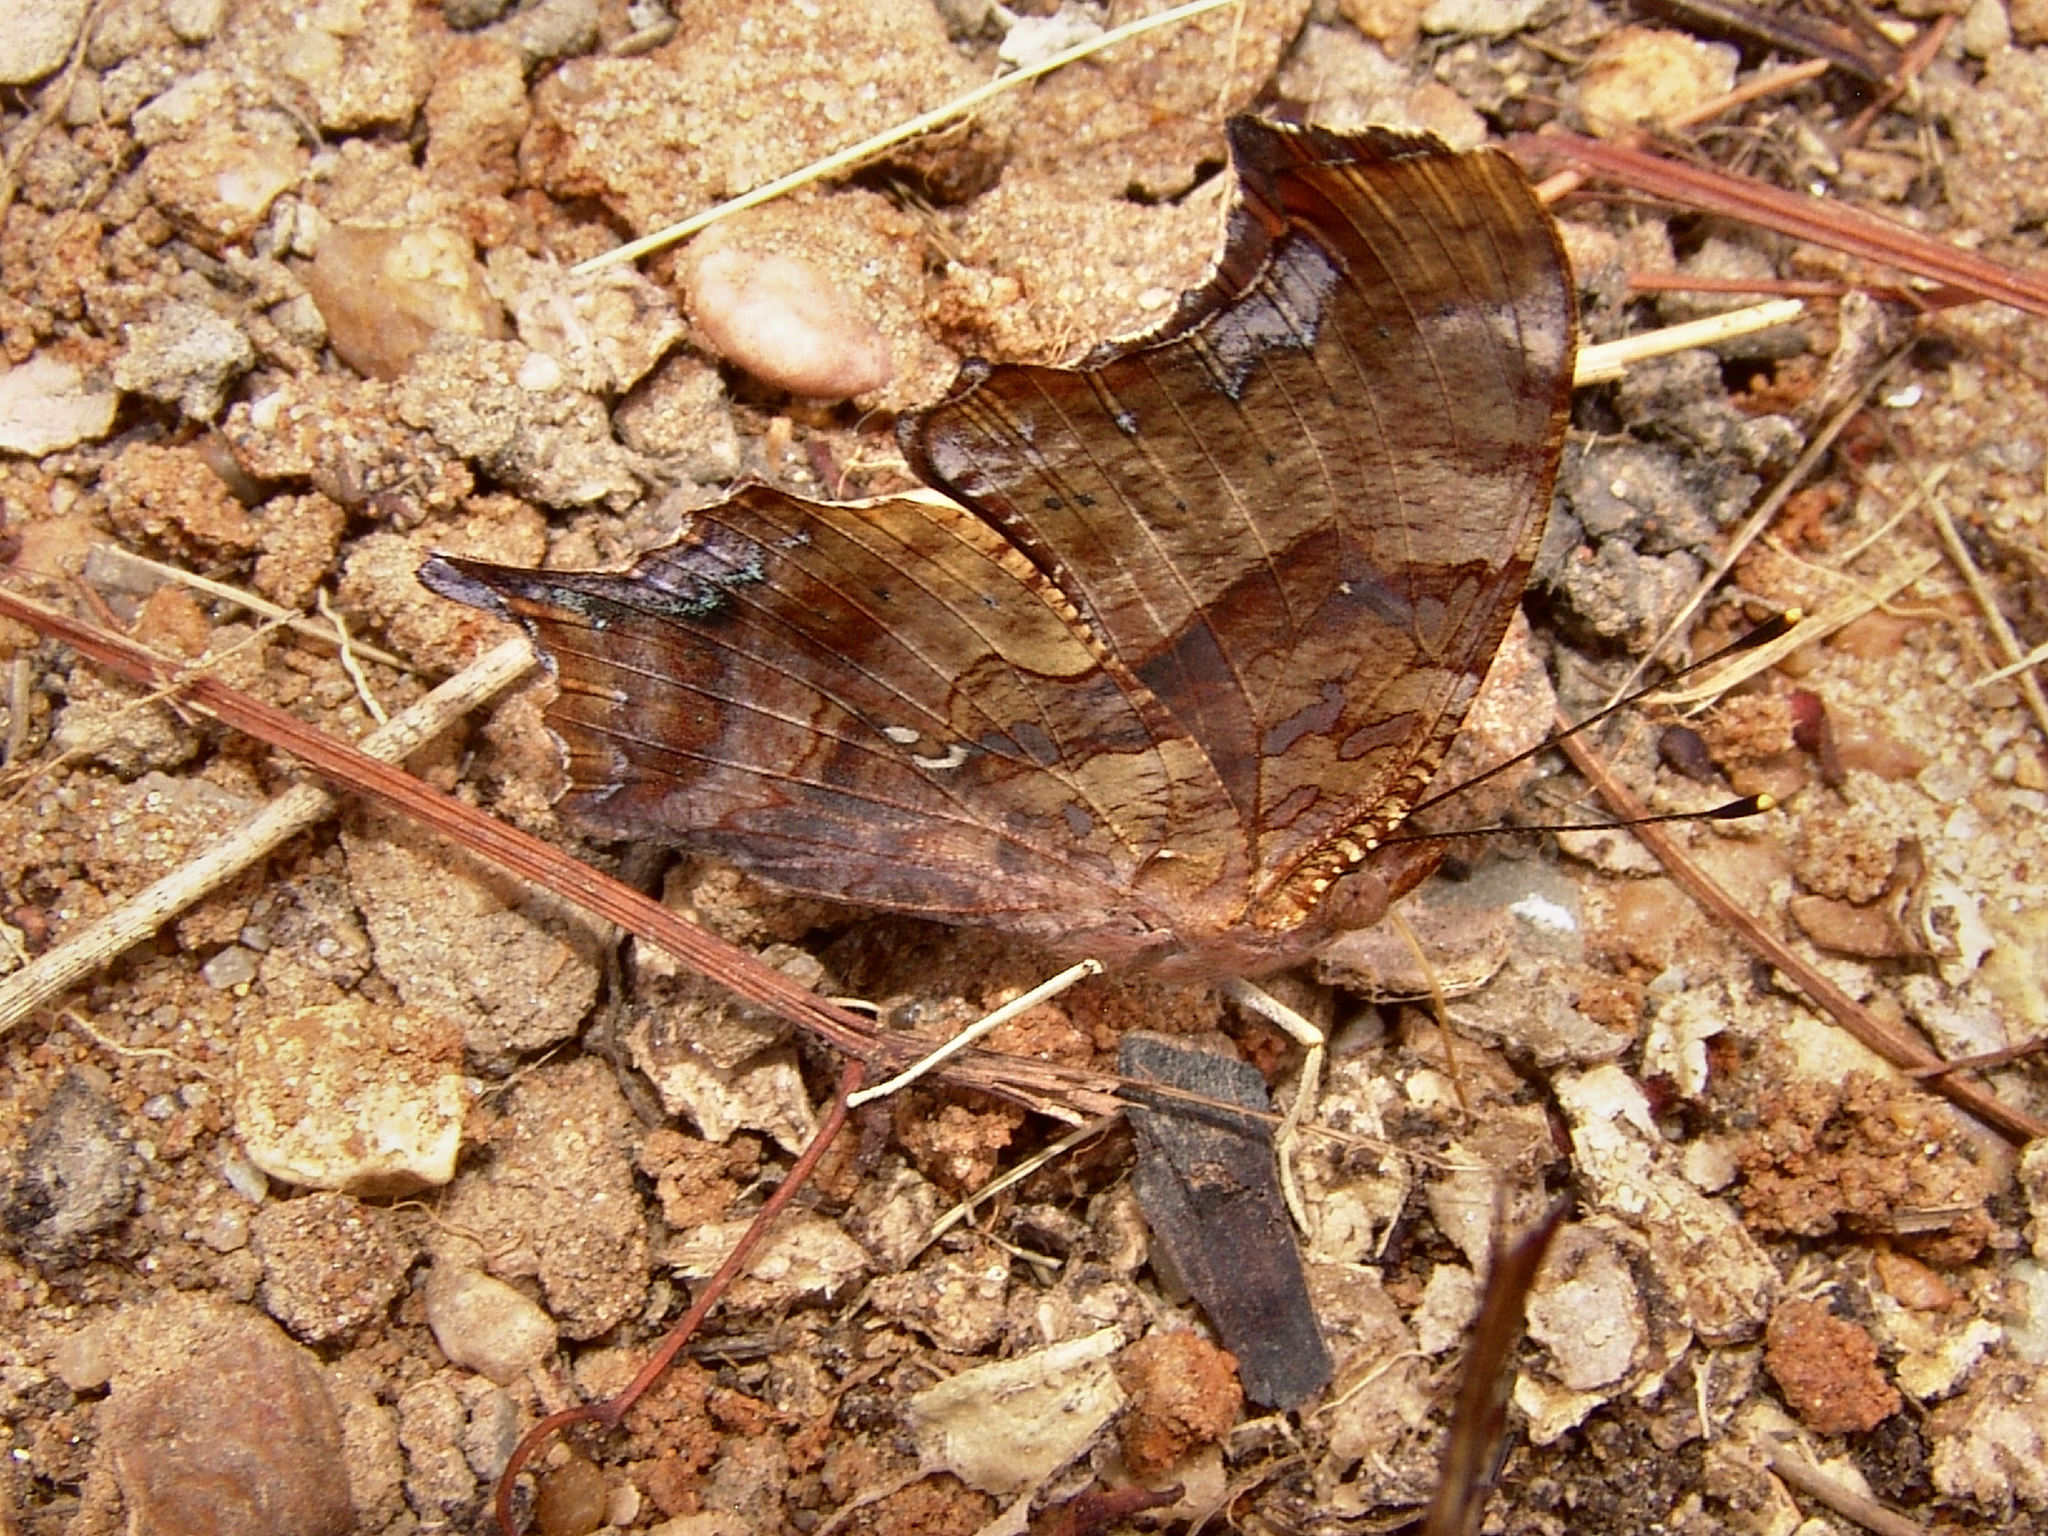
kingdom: Animalia
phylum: Arthropoda
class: Insecta
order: Lepidoptera
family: Nymphalidae
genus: Polygonia
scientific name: Polygonia interrogationis
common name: Question mark
